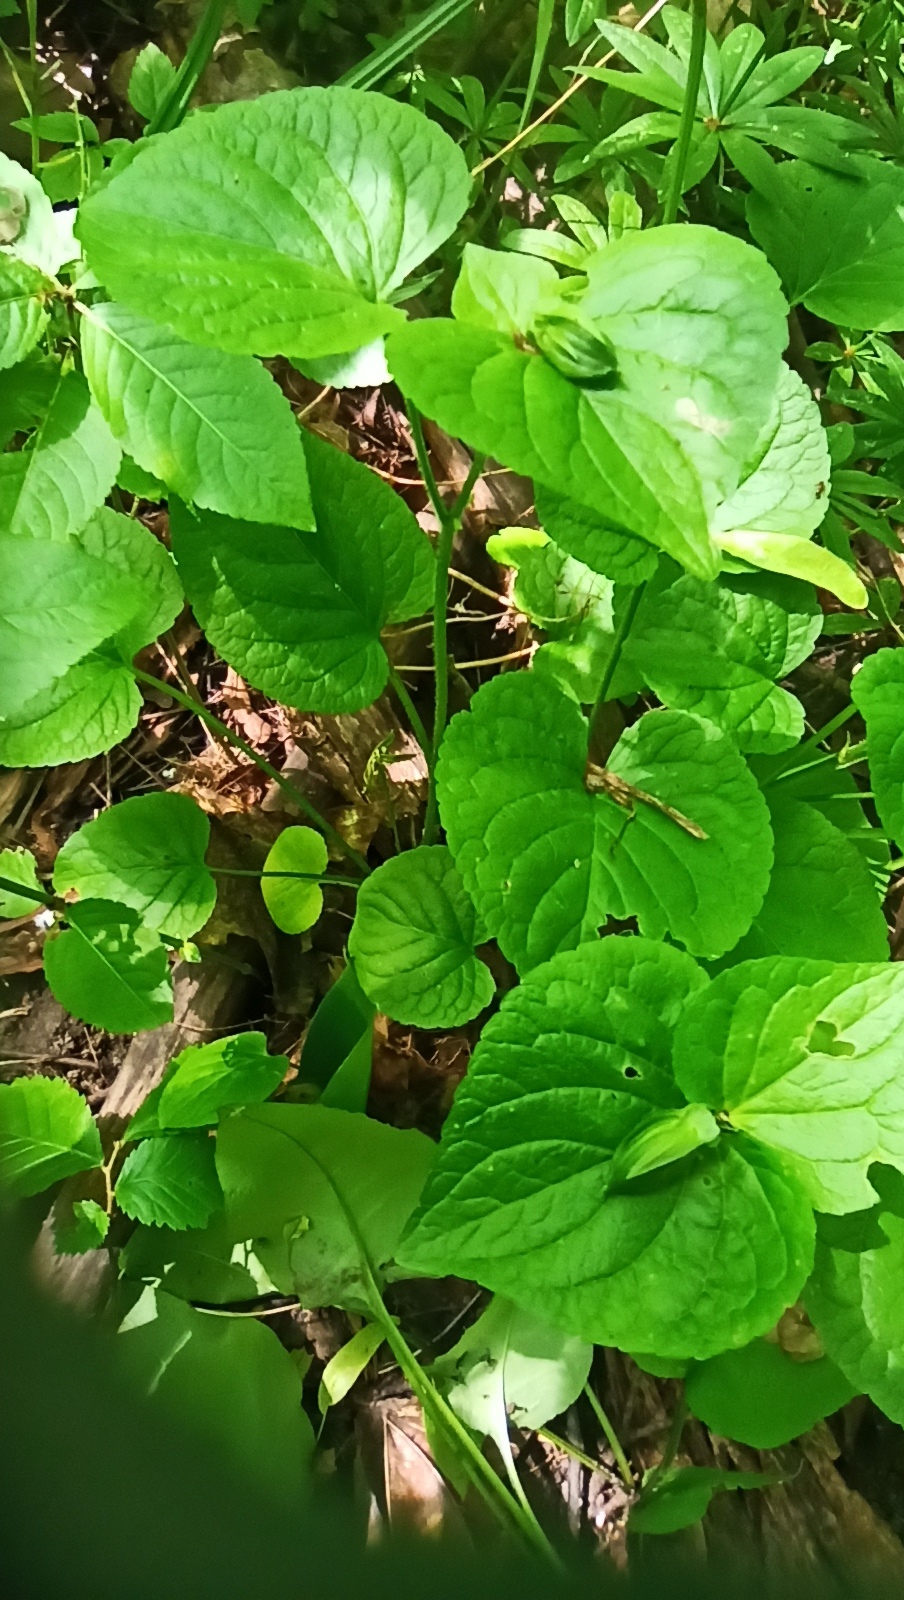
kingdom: Plantae
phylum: Tracheophyta
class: Magnoliopsida
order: Malpighiales
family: Violaceae
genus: Viola
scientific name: Viola mirabilis
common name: Wonder violet
